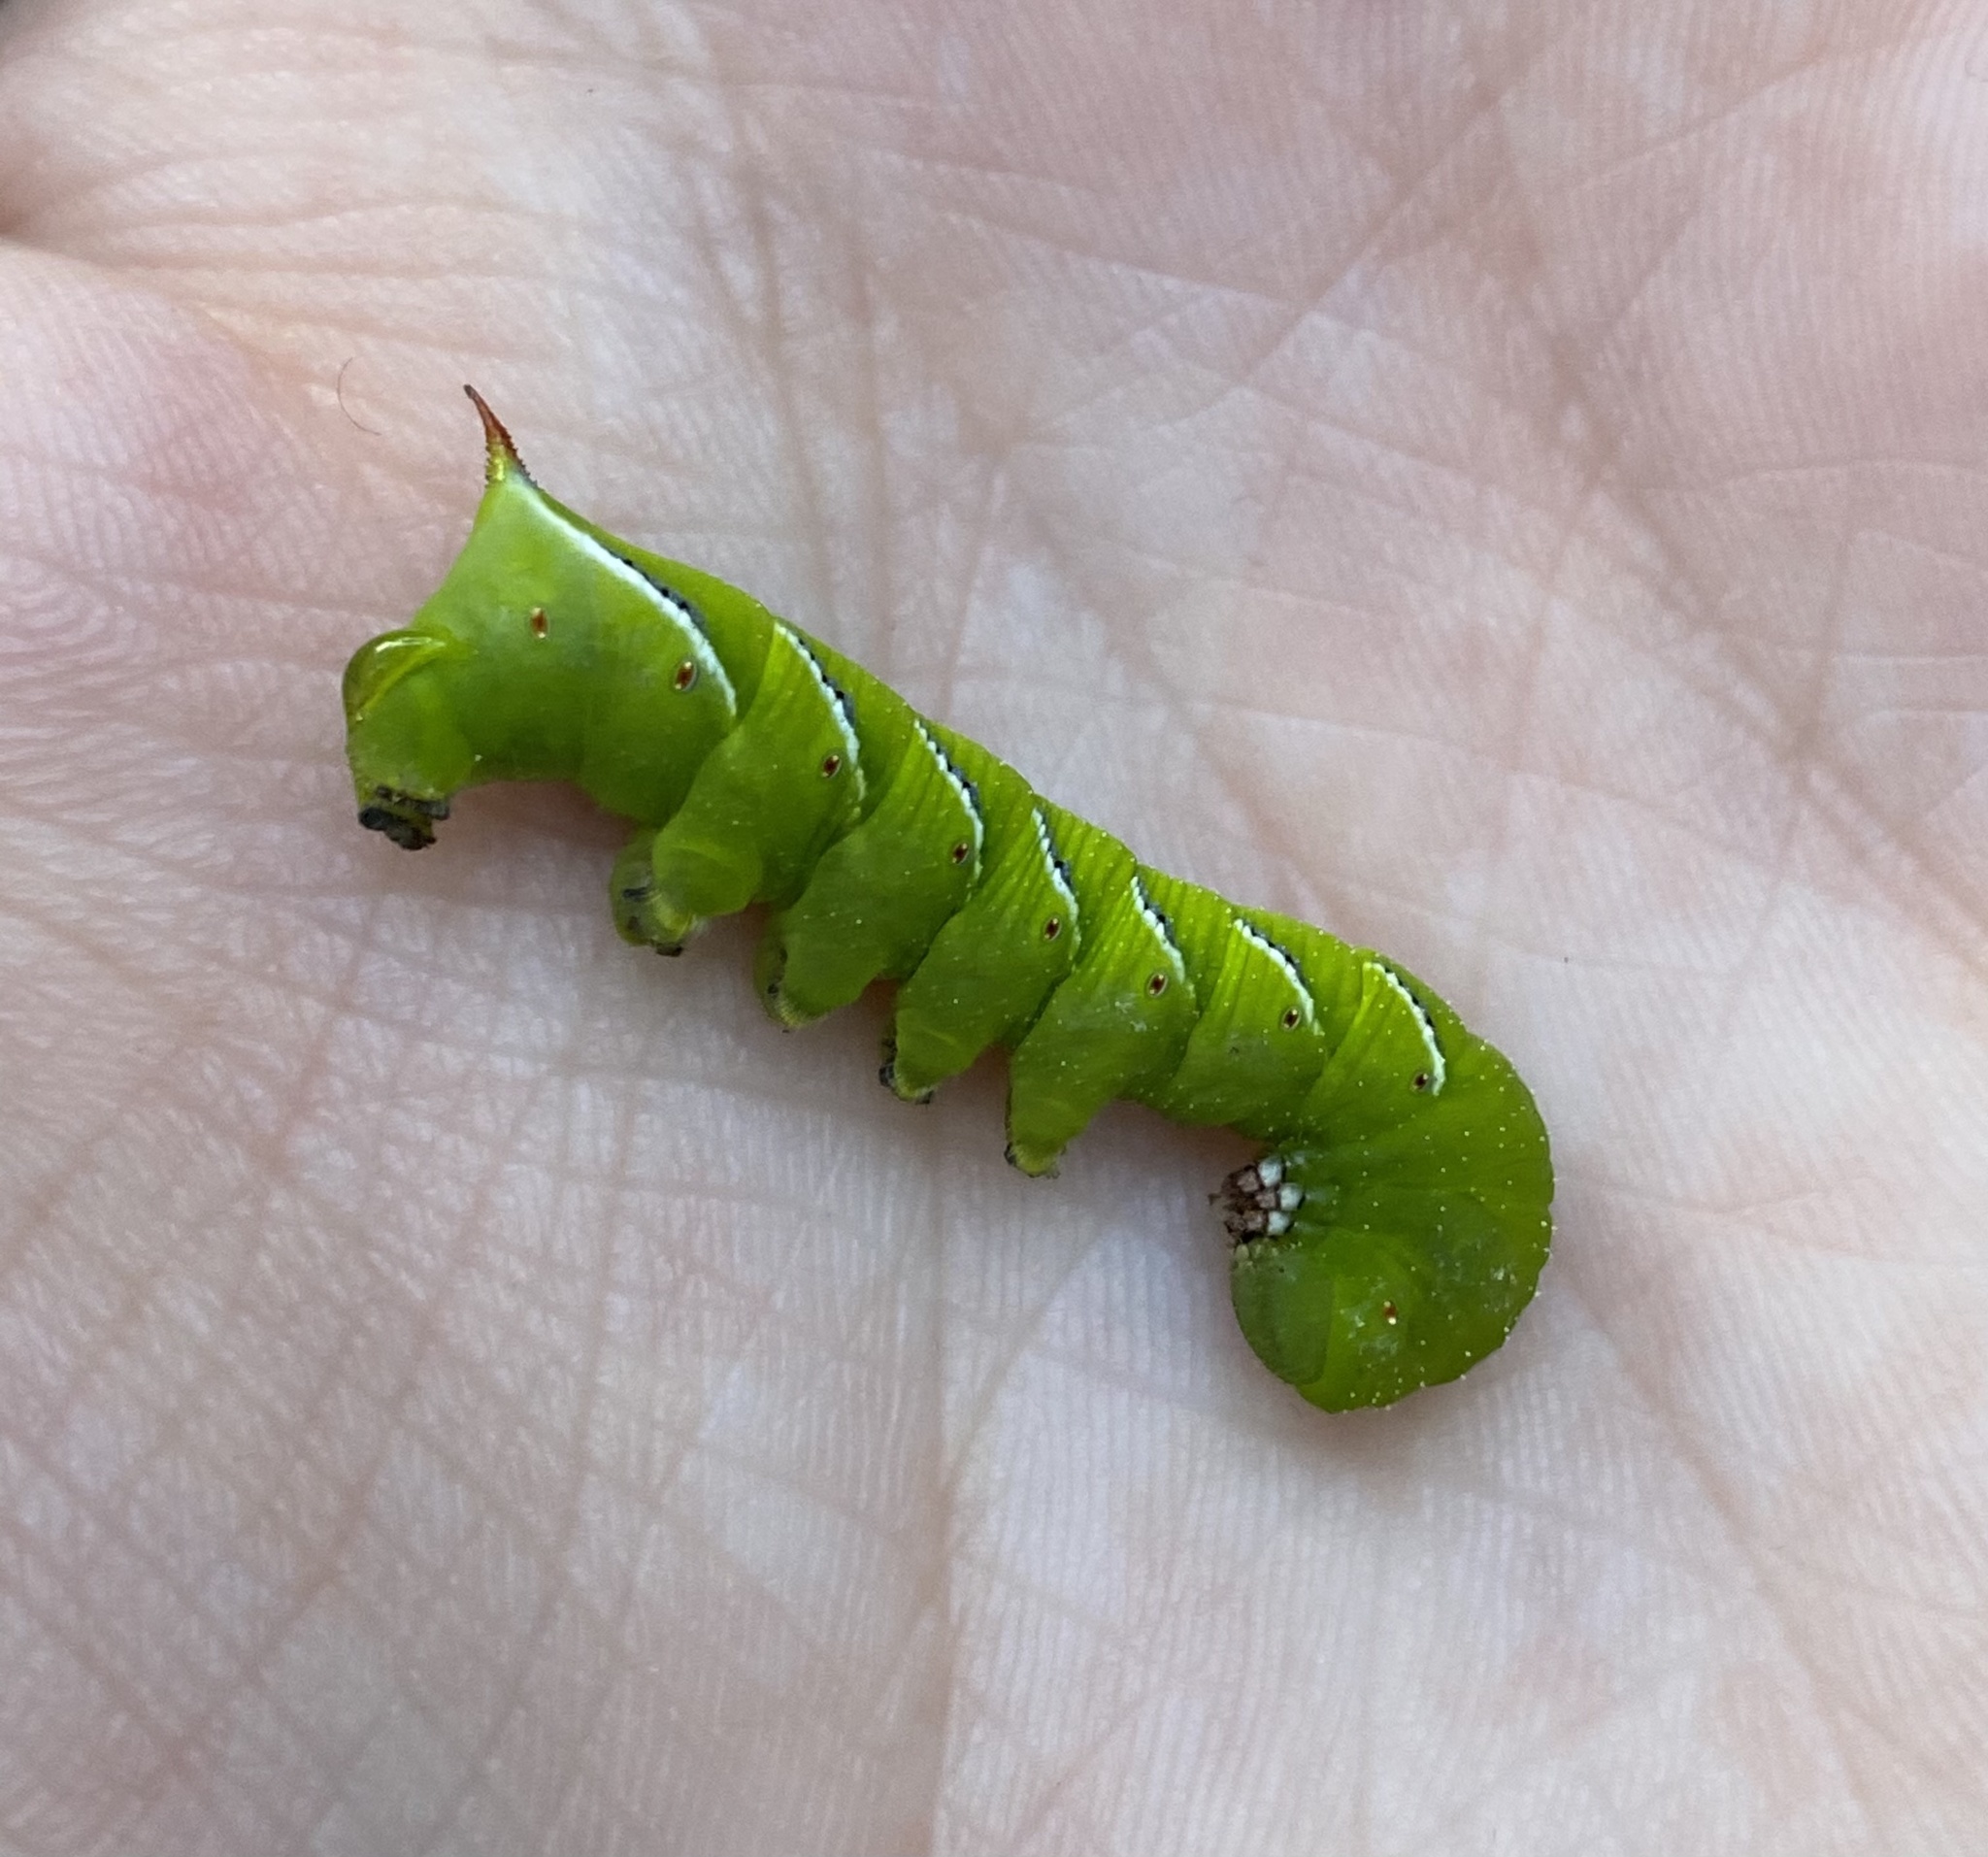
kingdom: Animalia
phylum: Arthropoda
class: Insecta
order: Lepidoptera
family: Sphingidae
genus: Manduca
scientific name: Manduca sexta
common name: Carolina sphinx
